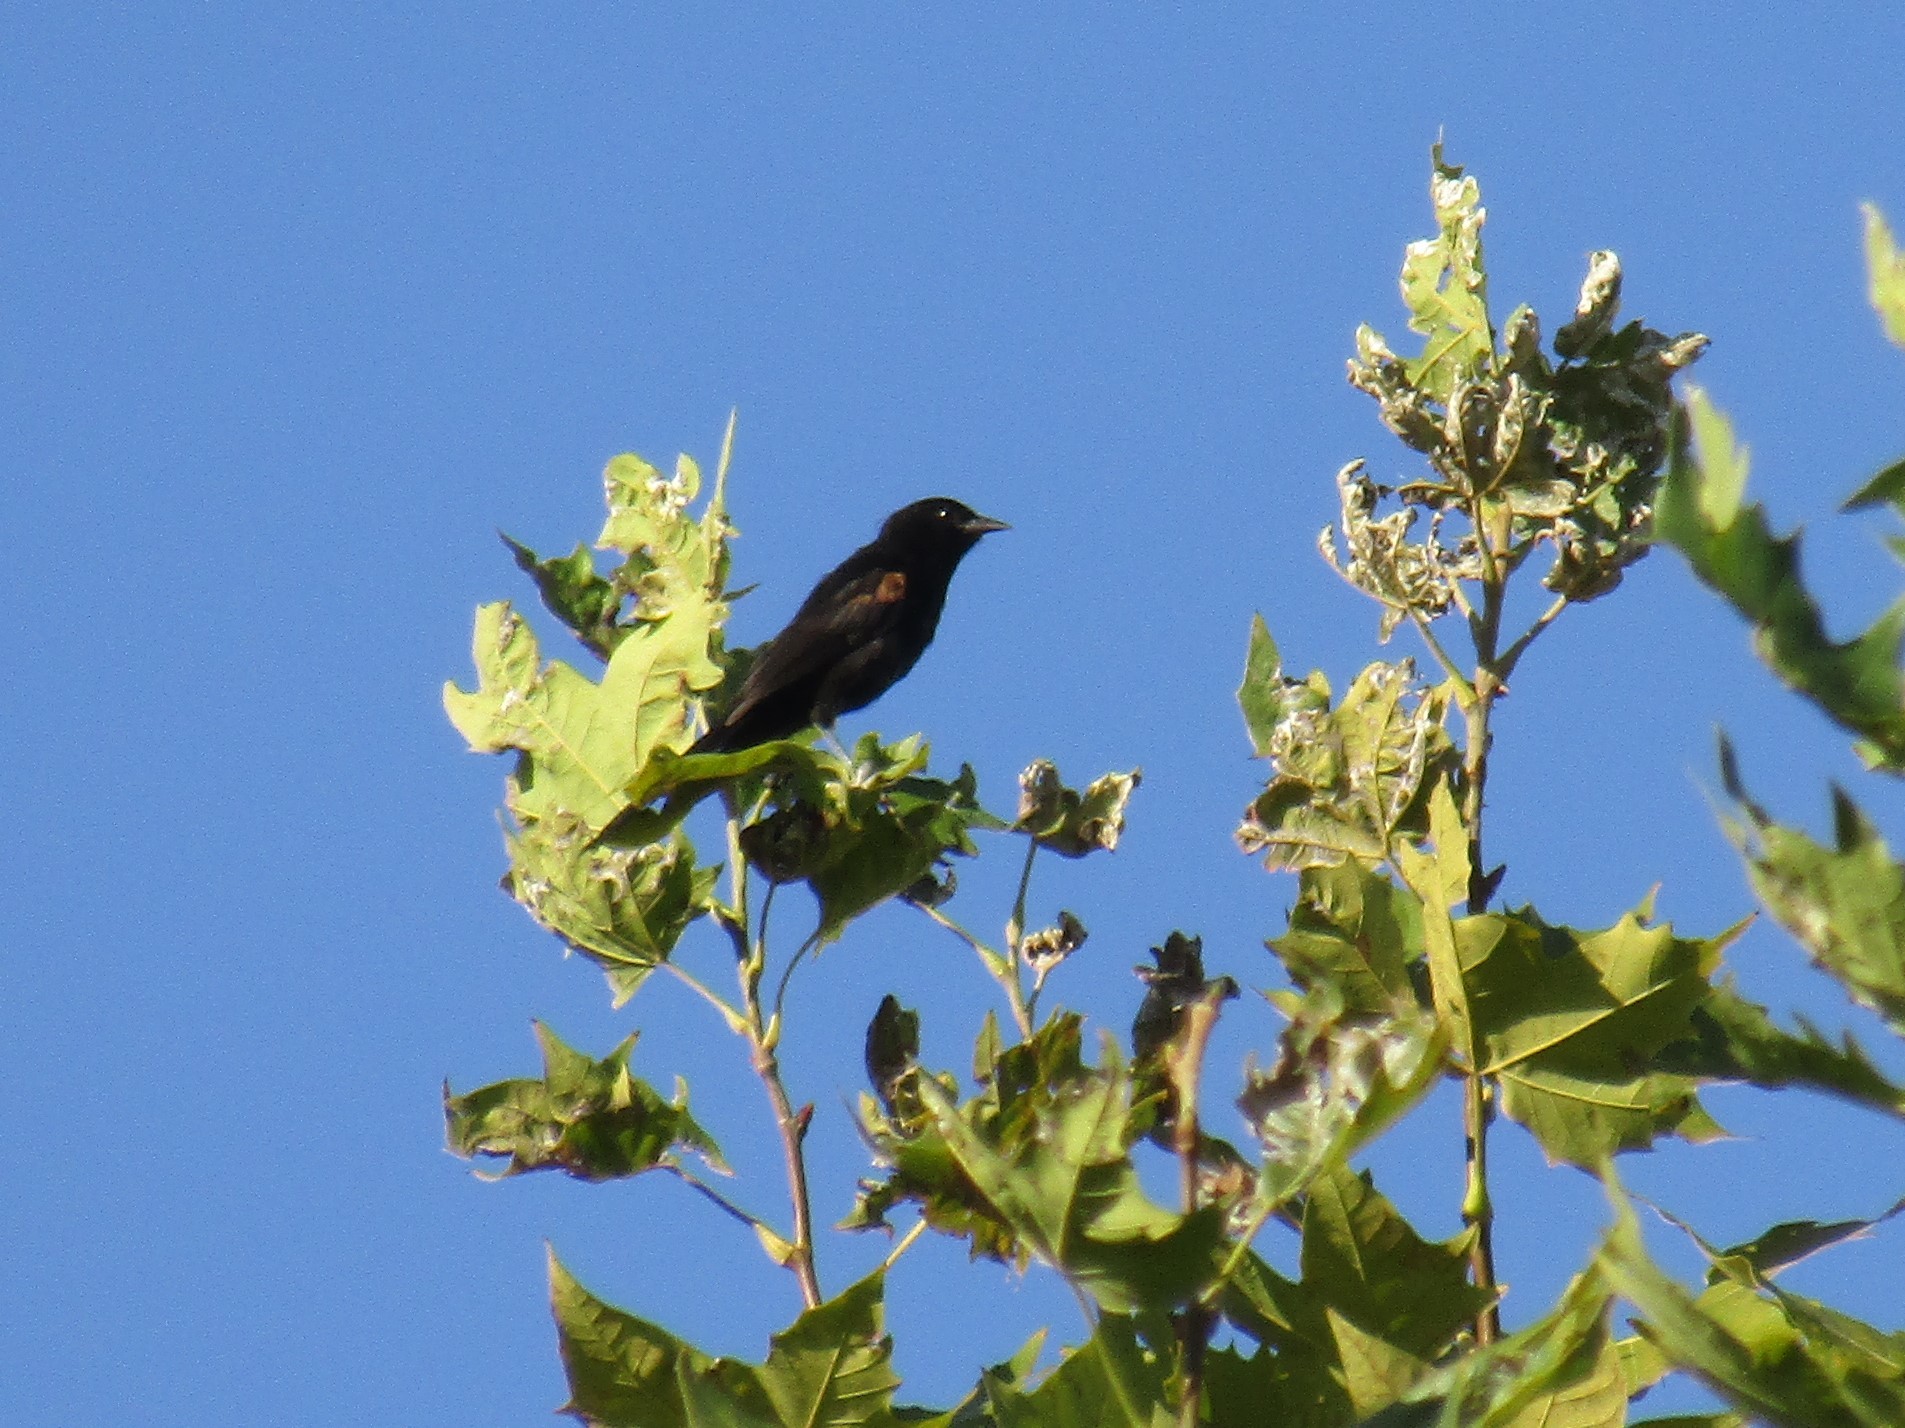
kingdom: Animalia
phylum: Chordata
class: Aves
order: Passeriformes
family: Icteridae
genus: Icterus
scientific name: Icterus cayanensis
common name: Epaulet oriole
